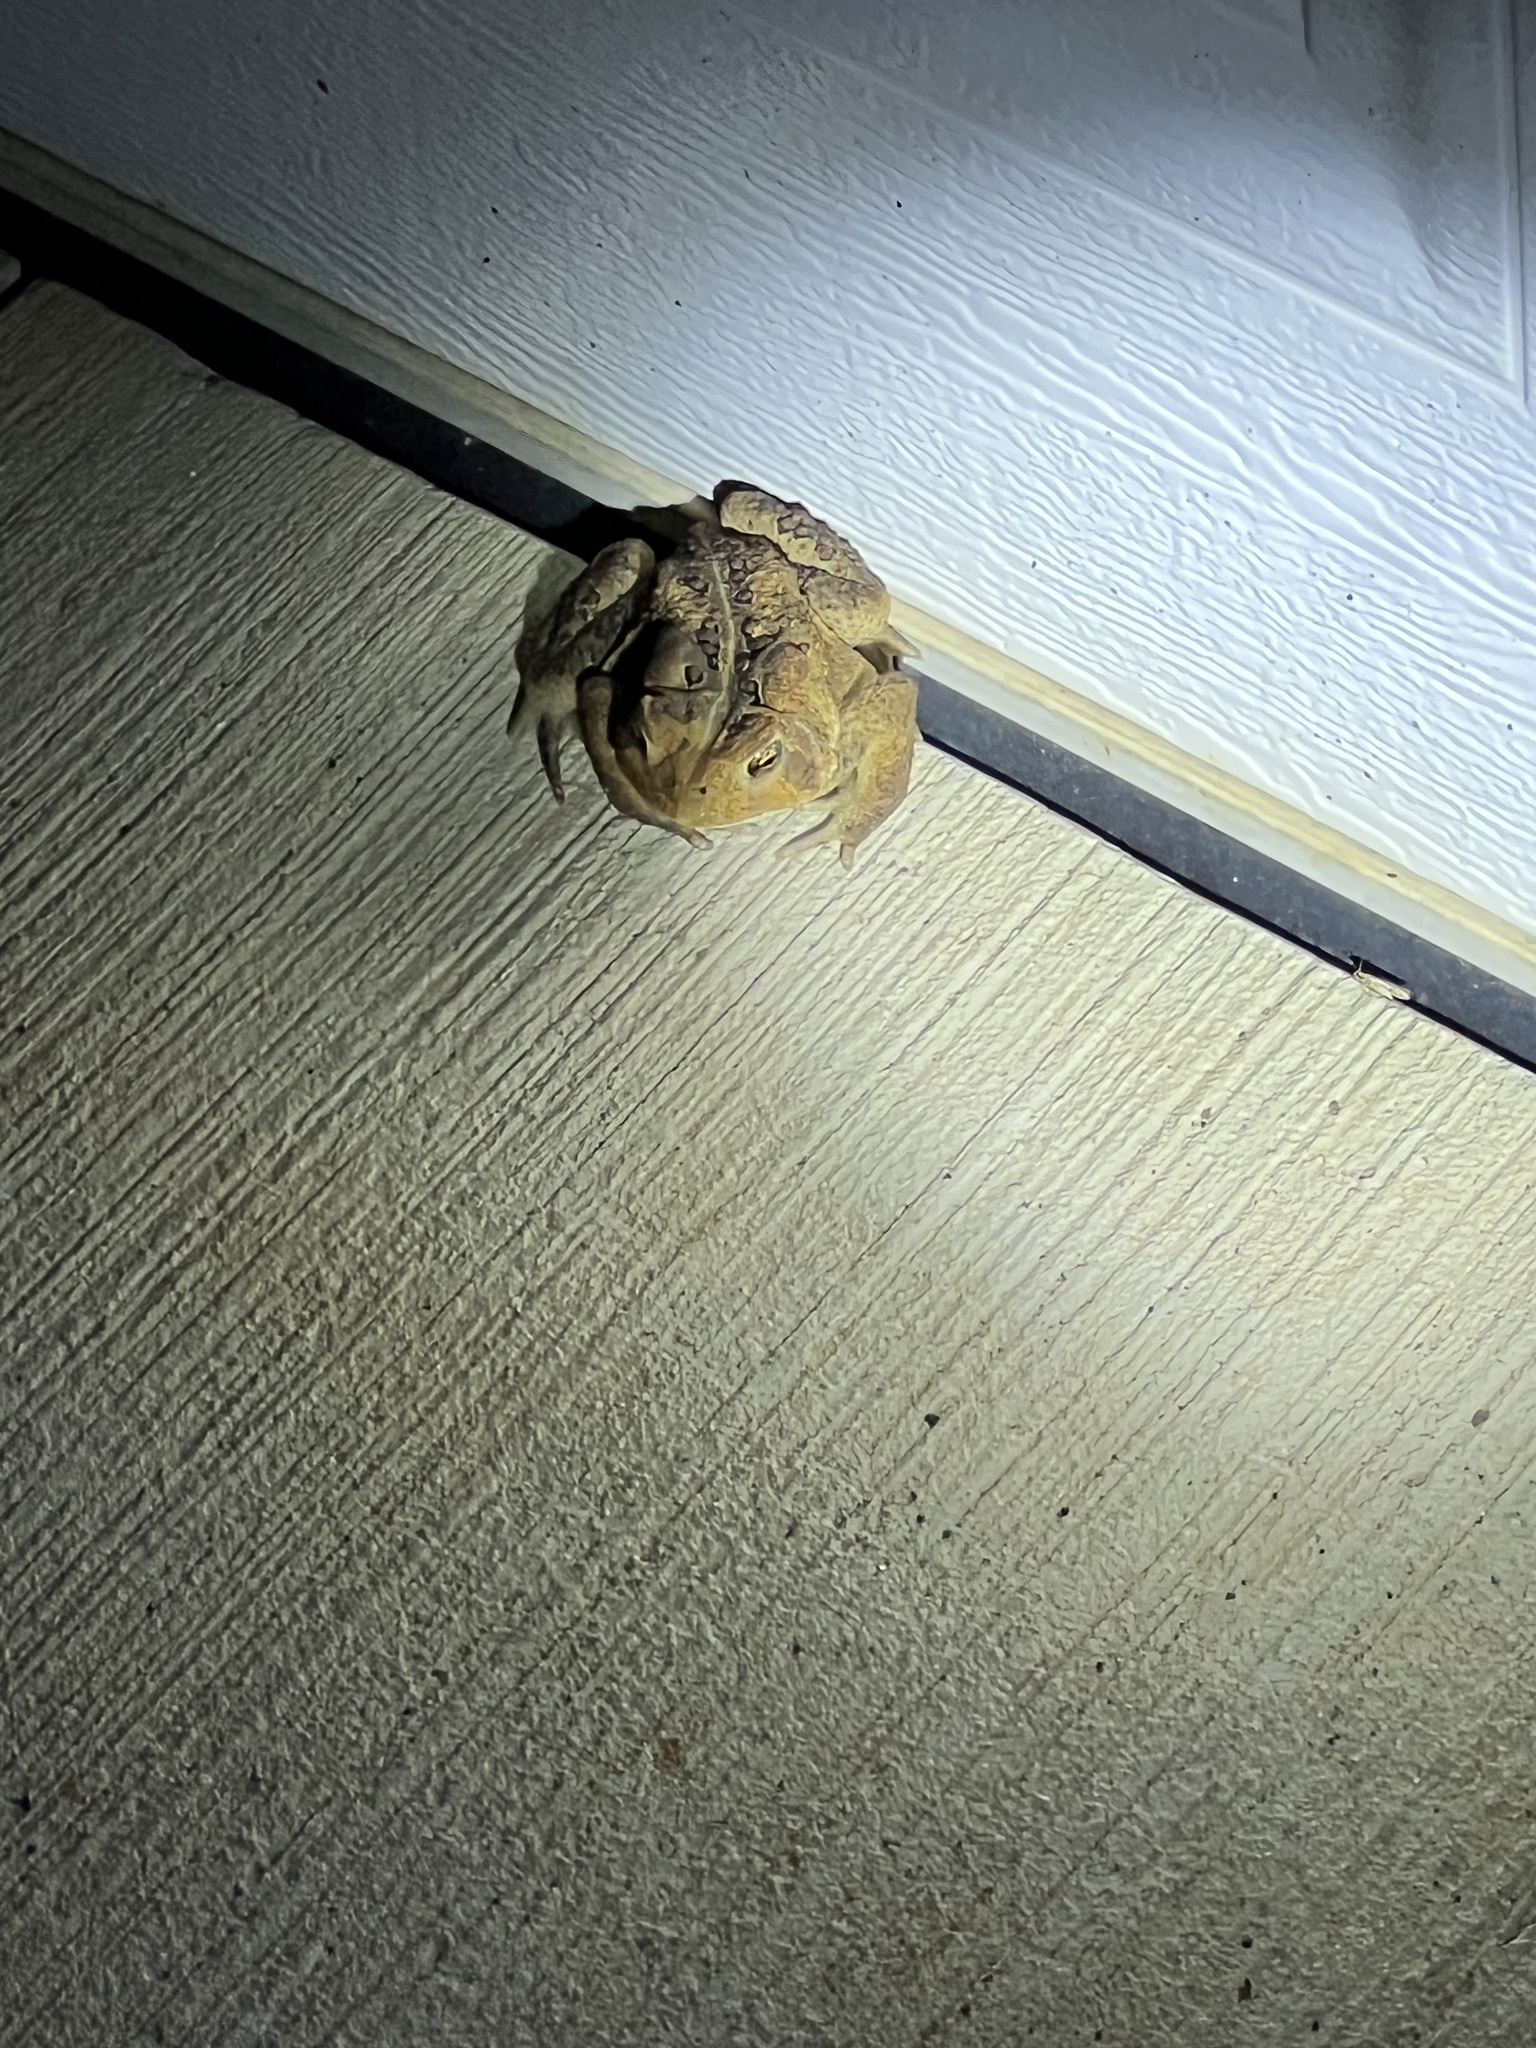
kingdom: Animalia
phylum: Chordata
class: Amphibia
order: Anura
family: Bufonidae
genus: Anaxyrus
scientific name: Anaxyrus americanus
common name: American toad
